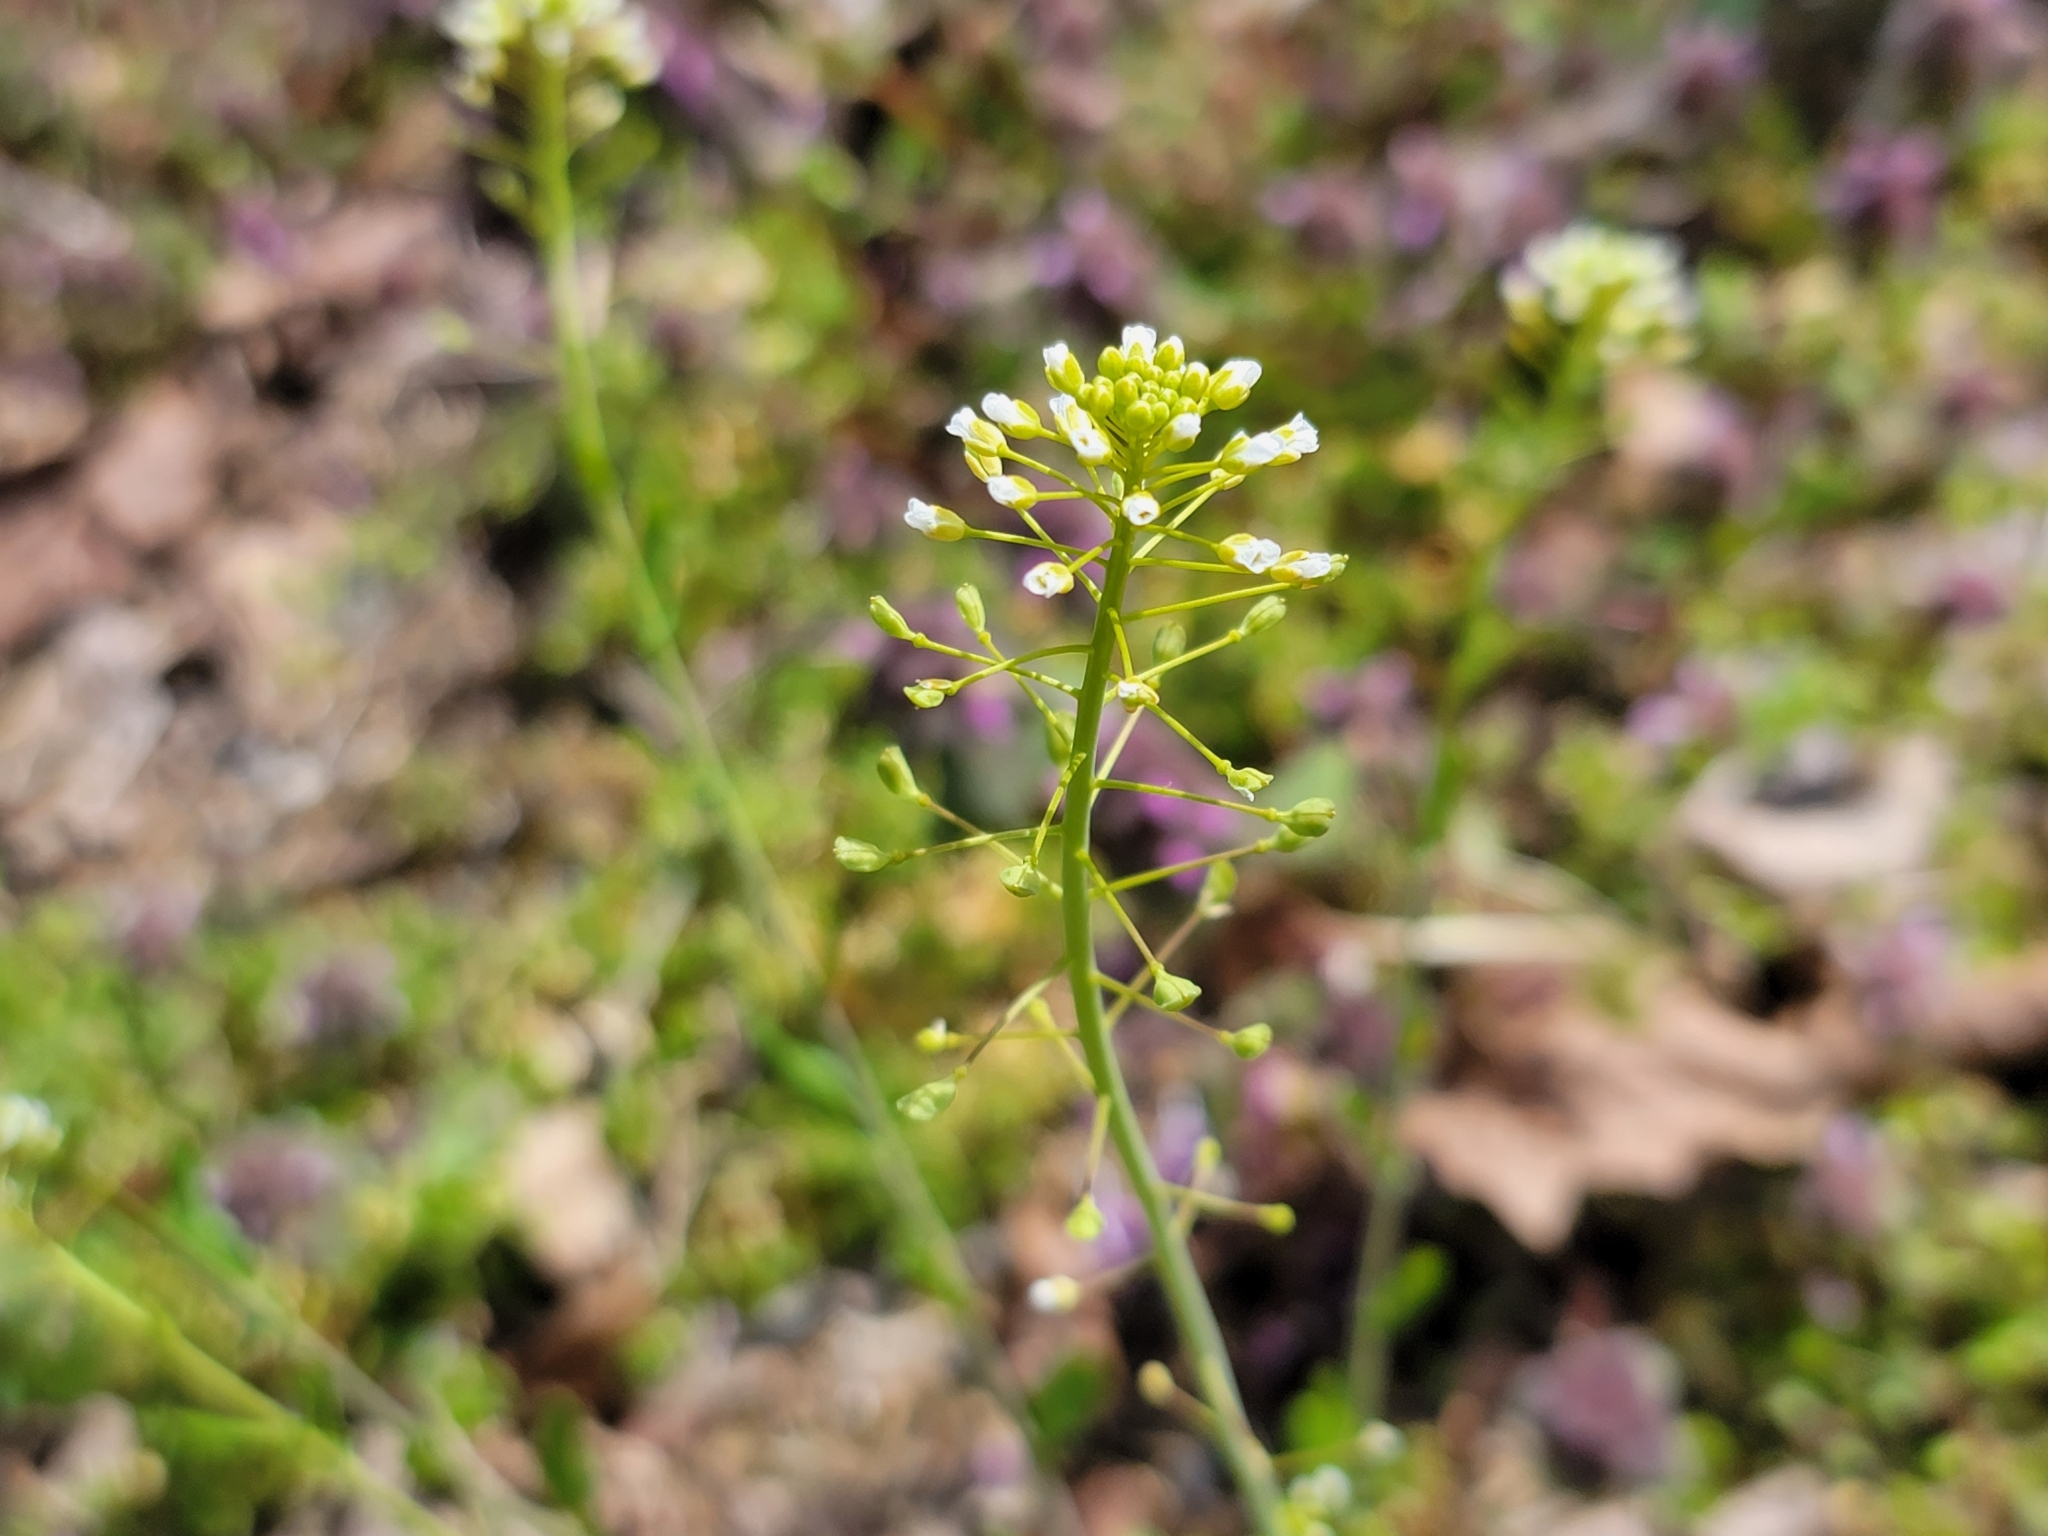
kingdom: Plantae
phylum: Tracheophyta
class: Magnoliopsida
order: Brassicales
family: Brassicaceae
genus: Mummenhoffia
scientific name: Mummenhoffia alliacea
